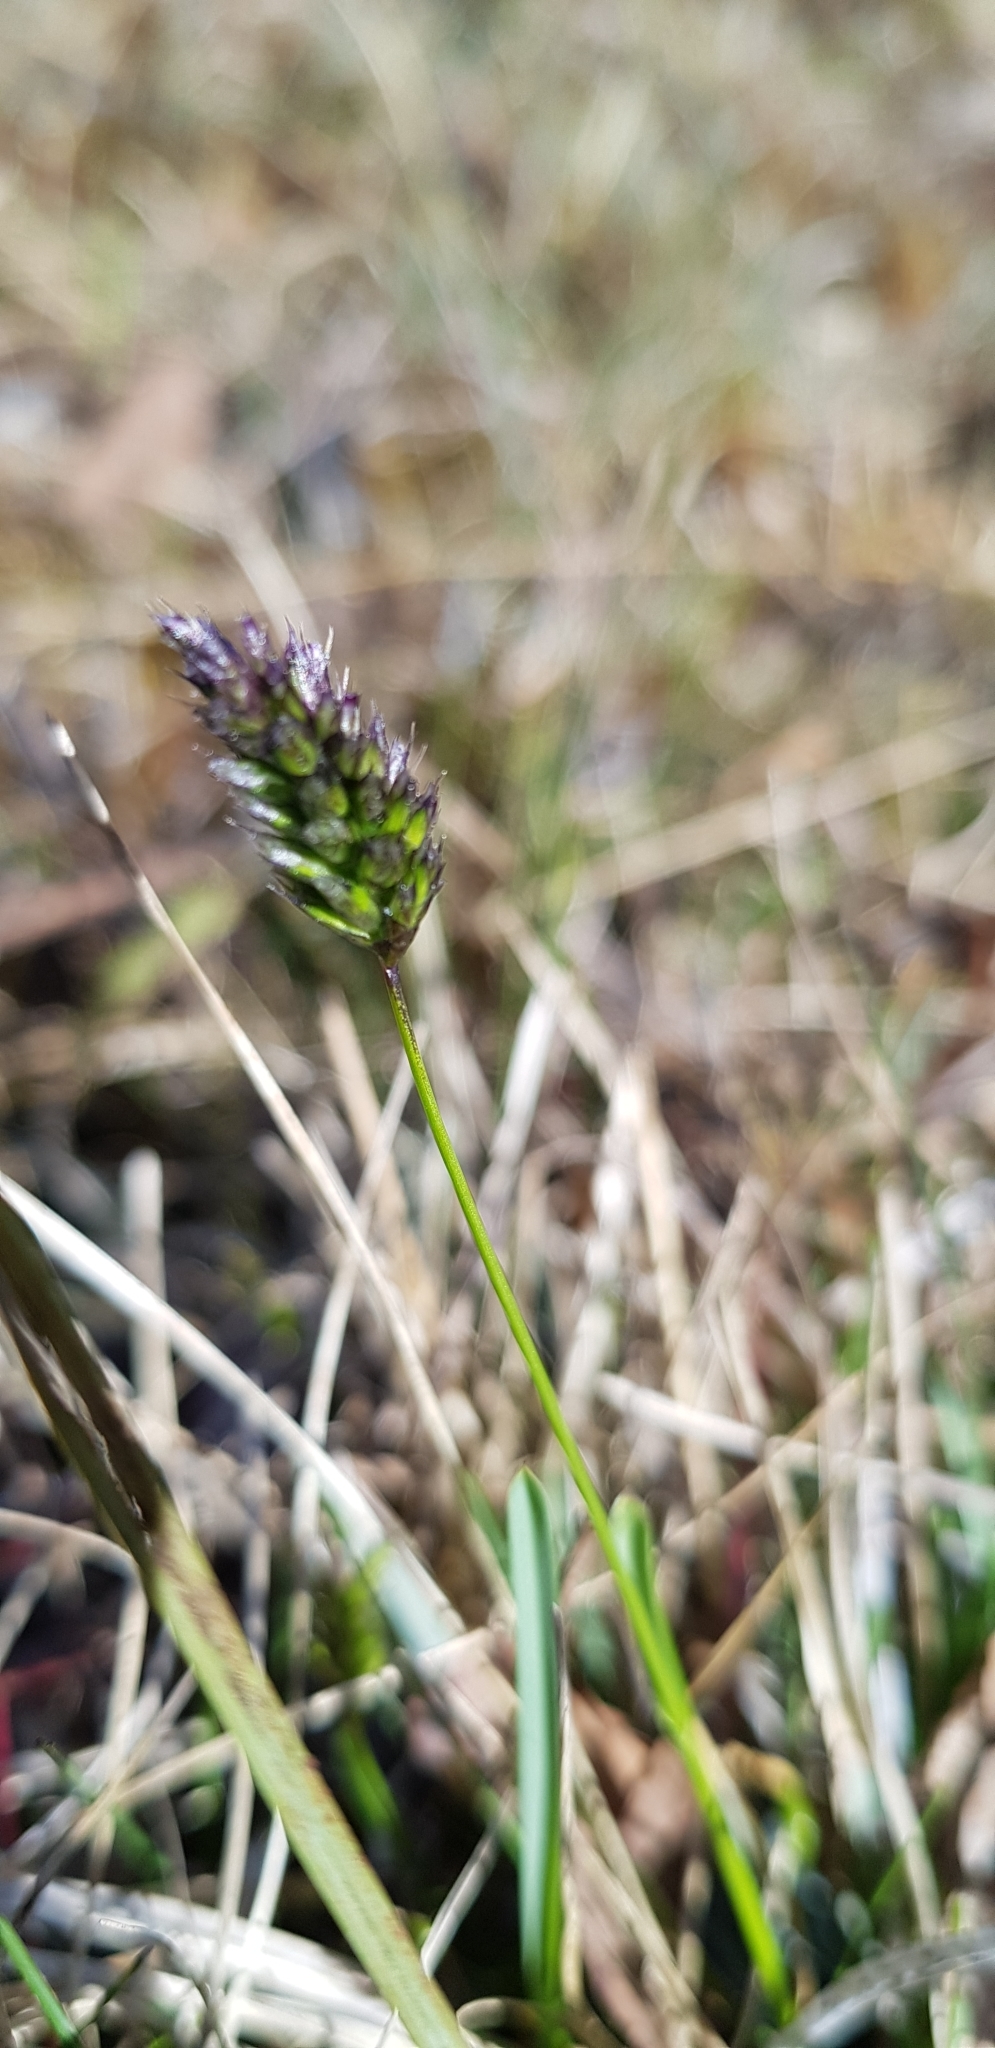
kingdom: Plantae
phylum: Tracheophyta
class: Liliopsida
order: Poales
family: Poaceae
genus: Sesleria
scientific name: Sesleria caerulea
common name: Blue moor-grass
